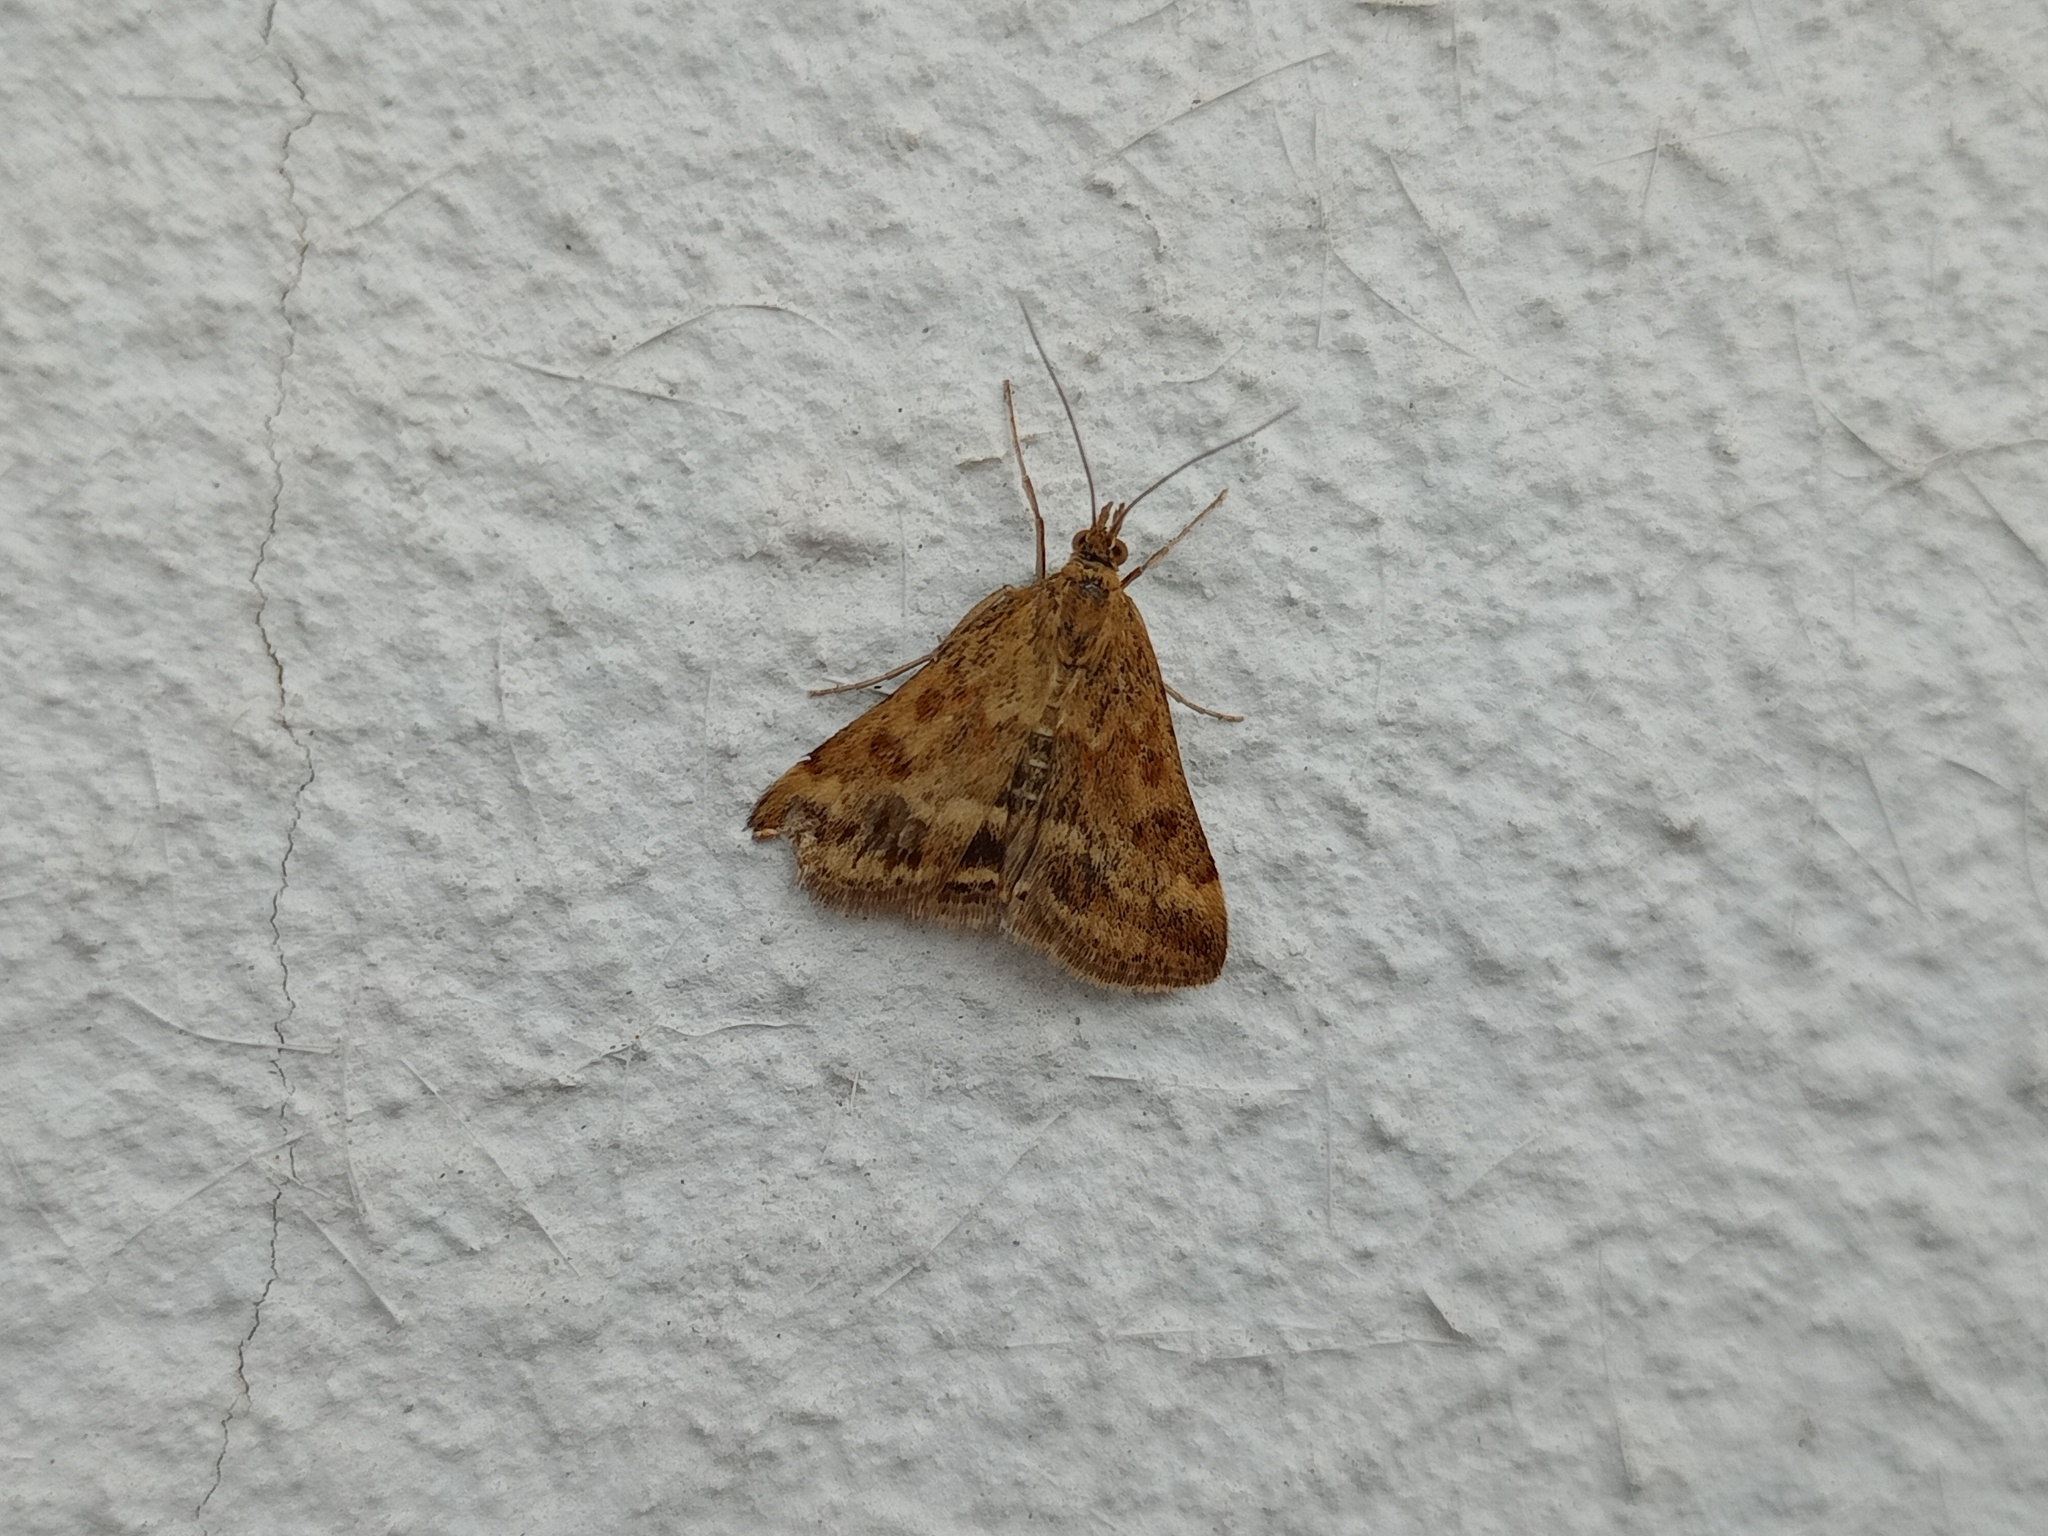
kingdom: Animalia
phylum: Arthropoda
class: Insecta
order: Lepidoptera
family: Crambidae
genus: Pyrausta
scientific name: Pyrausta despicata
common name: Straw-barred pearl
